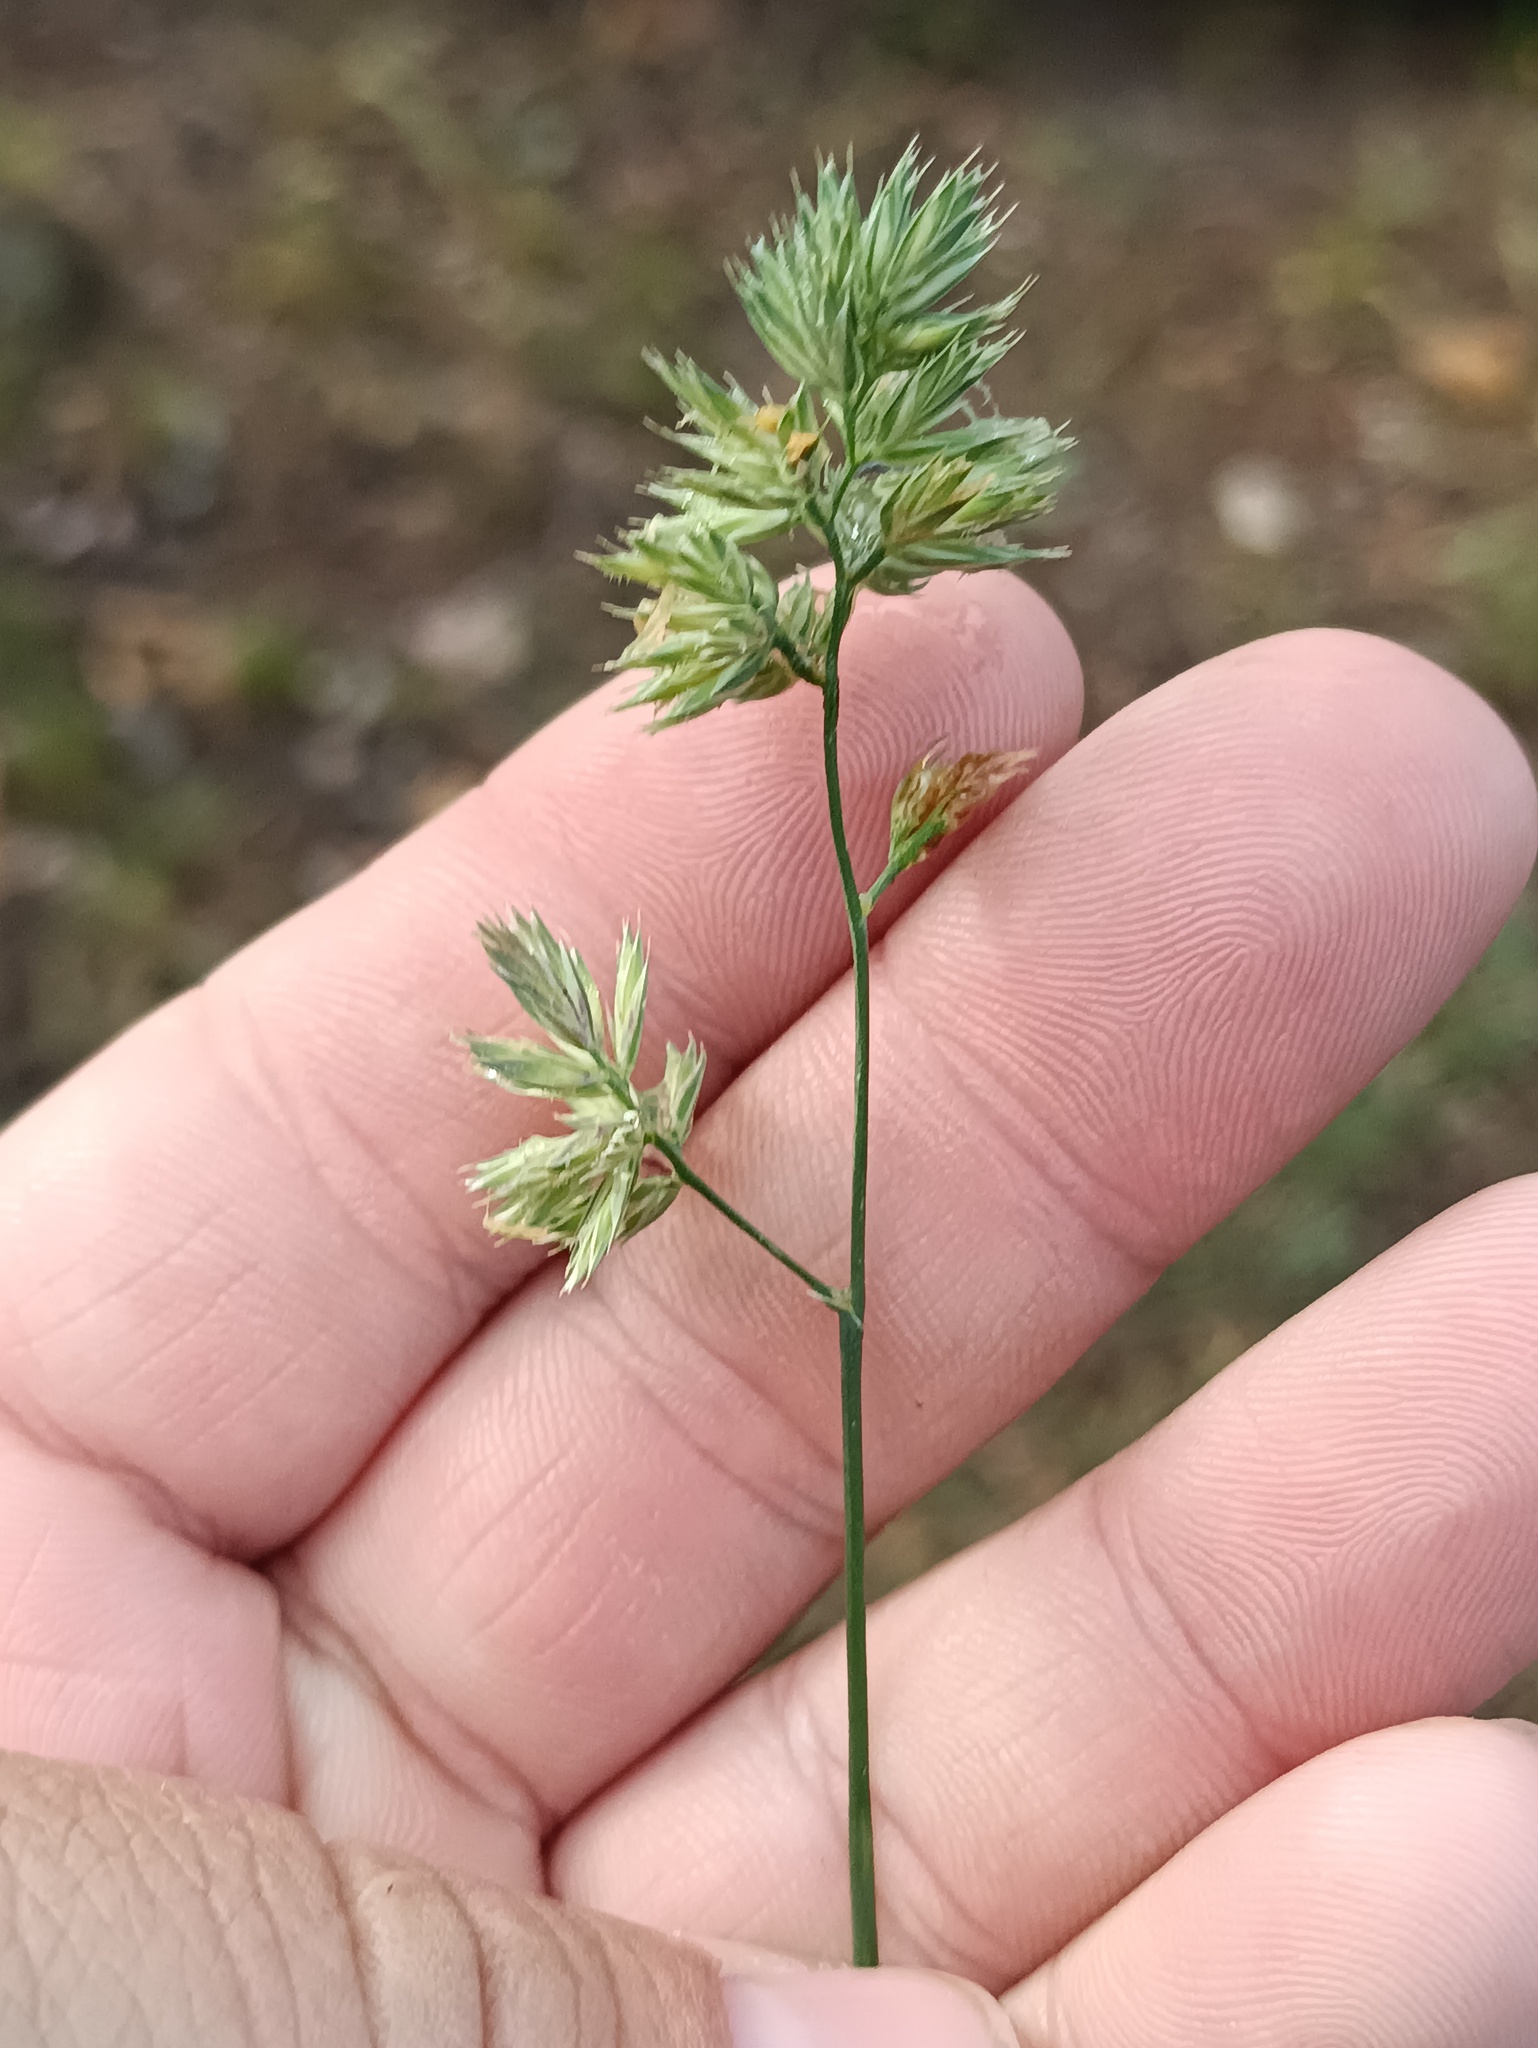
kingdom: Plantae
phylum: Tracheophyta
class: Liliopsida
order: Poales
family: Poaceae
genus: Dactylis
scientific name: Dactylis glomerata
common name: Orchardgrass
